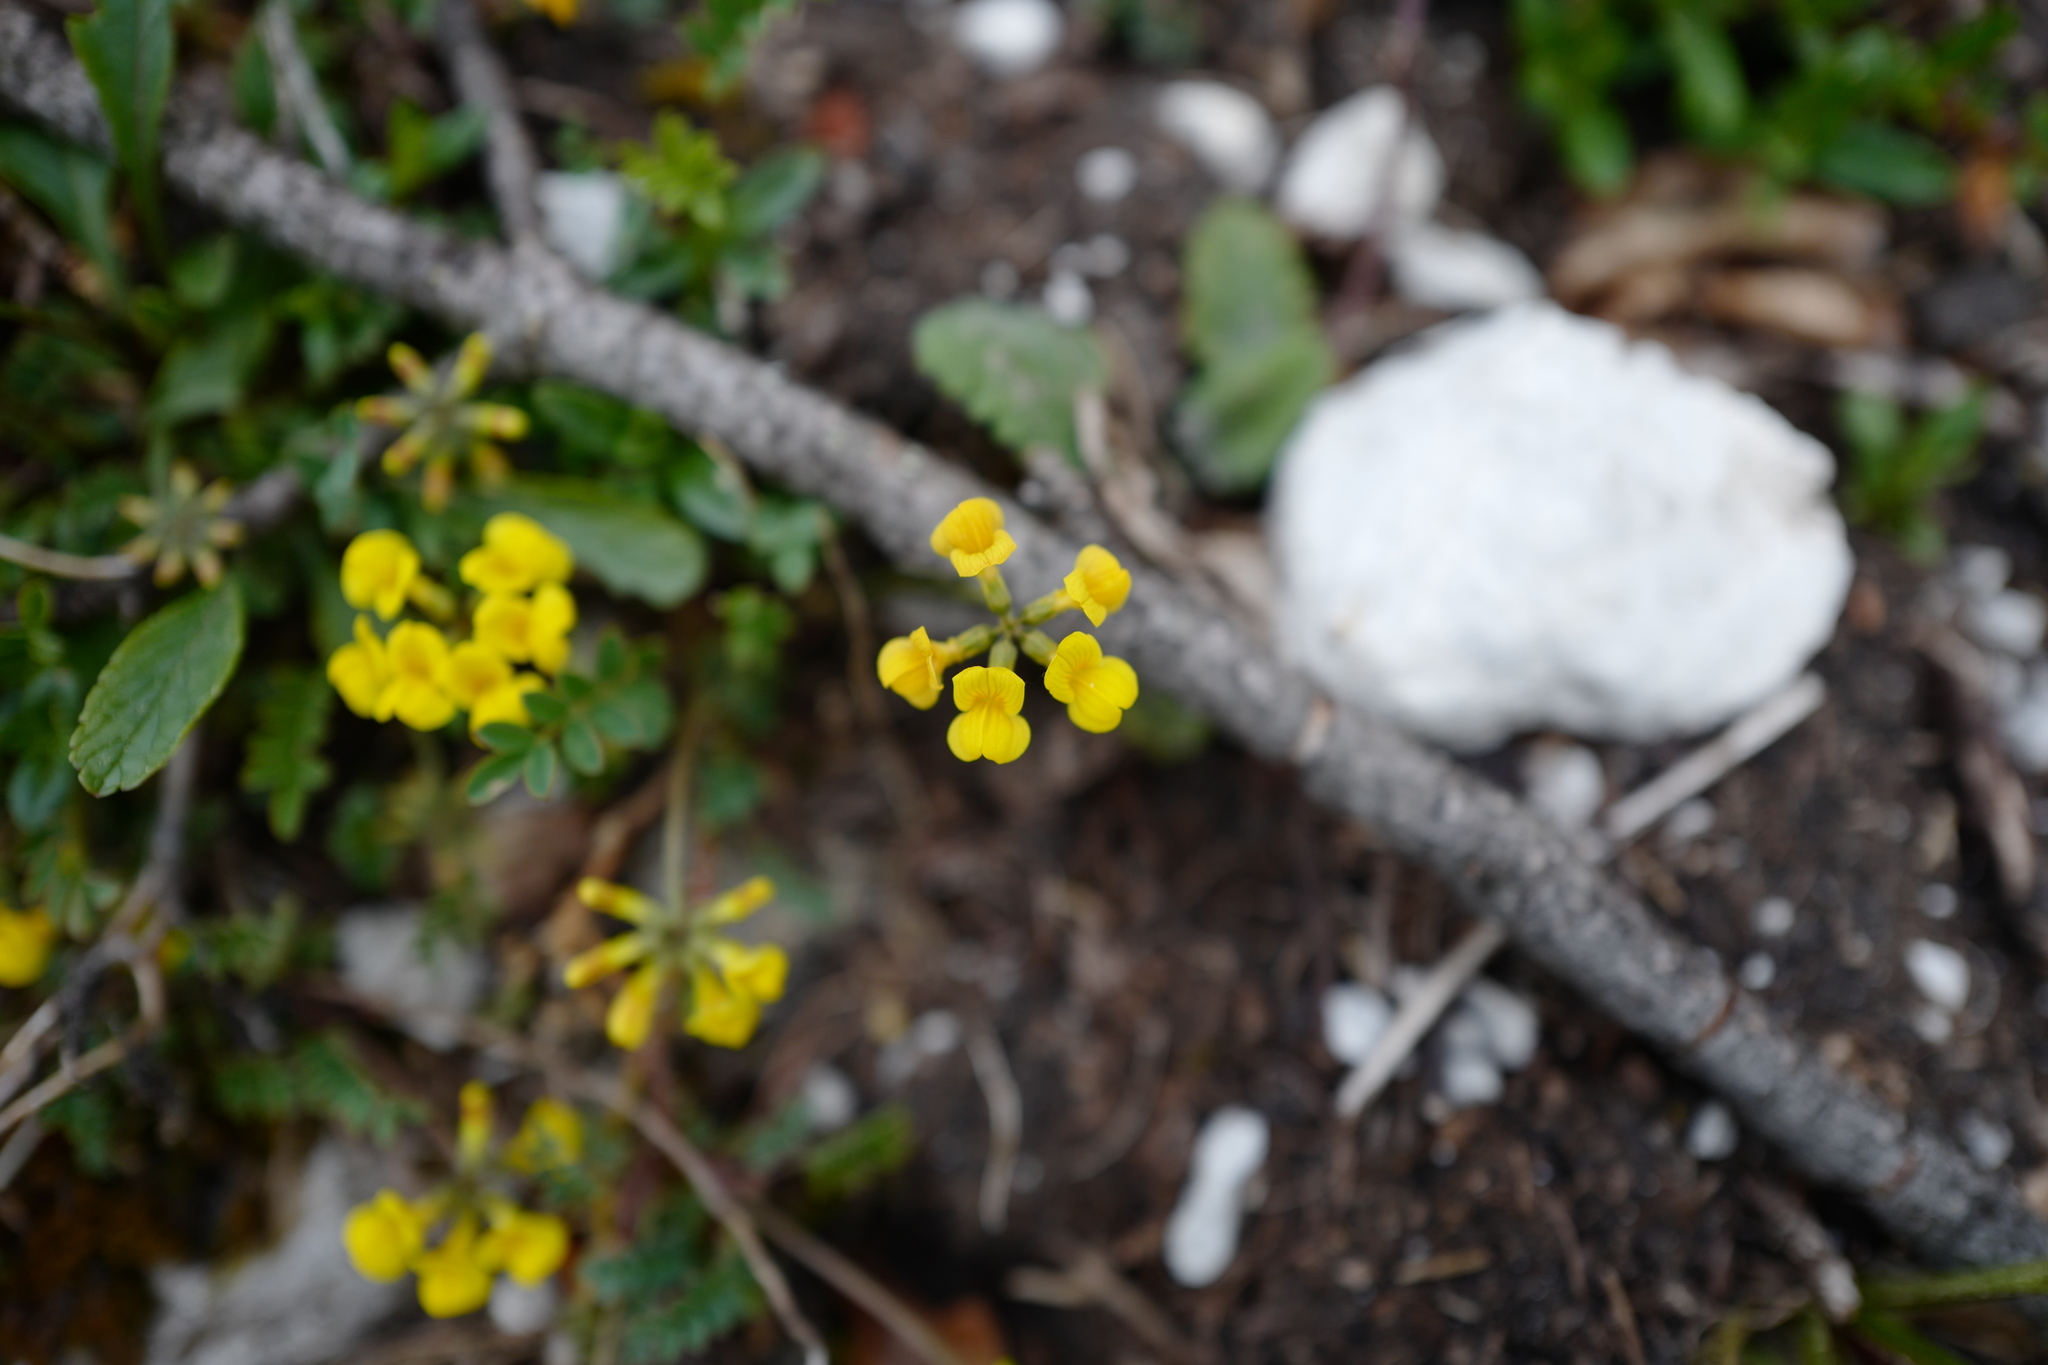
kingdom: Plantae
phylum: Tracheophyta
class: Magnoliopsida
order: Fabales
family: Fabaceae
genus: Hippocrepis
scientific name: Hippocrepis comosa
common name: Horseshoe vetch
